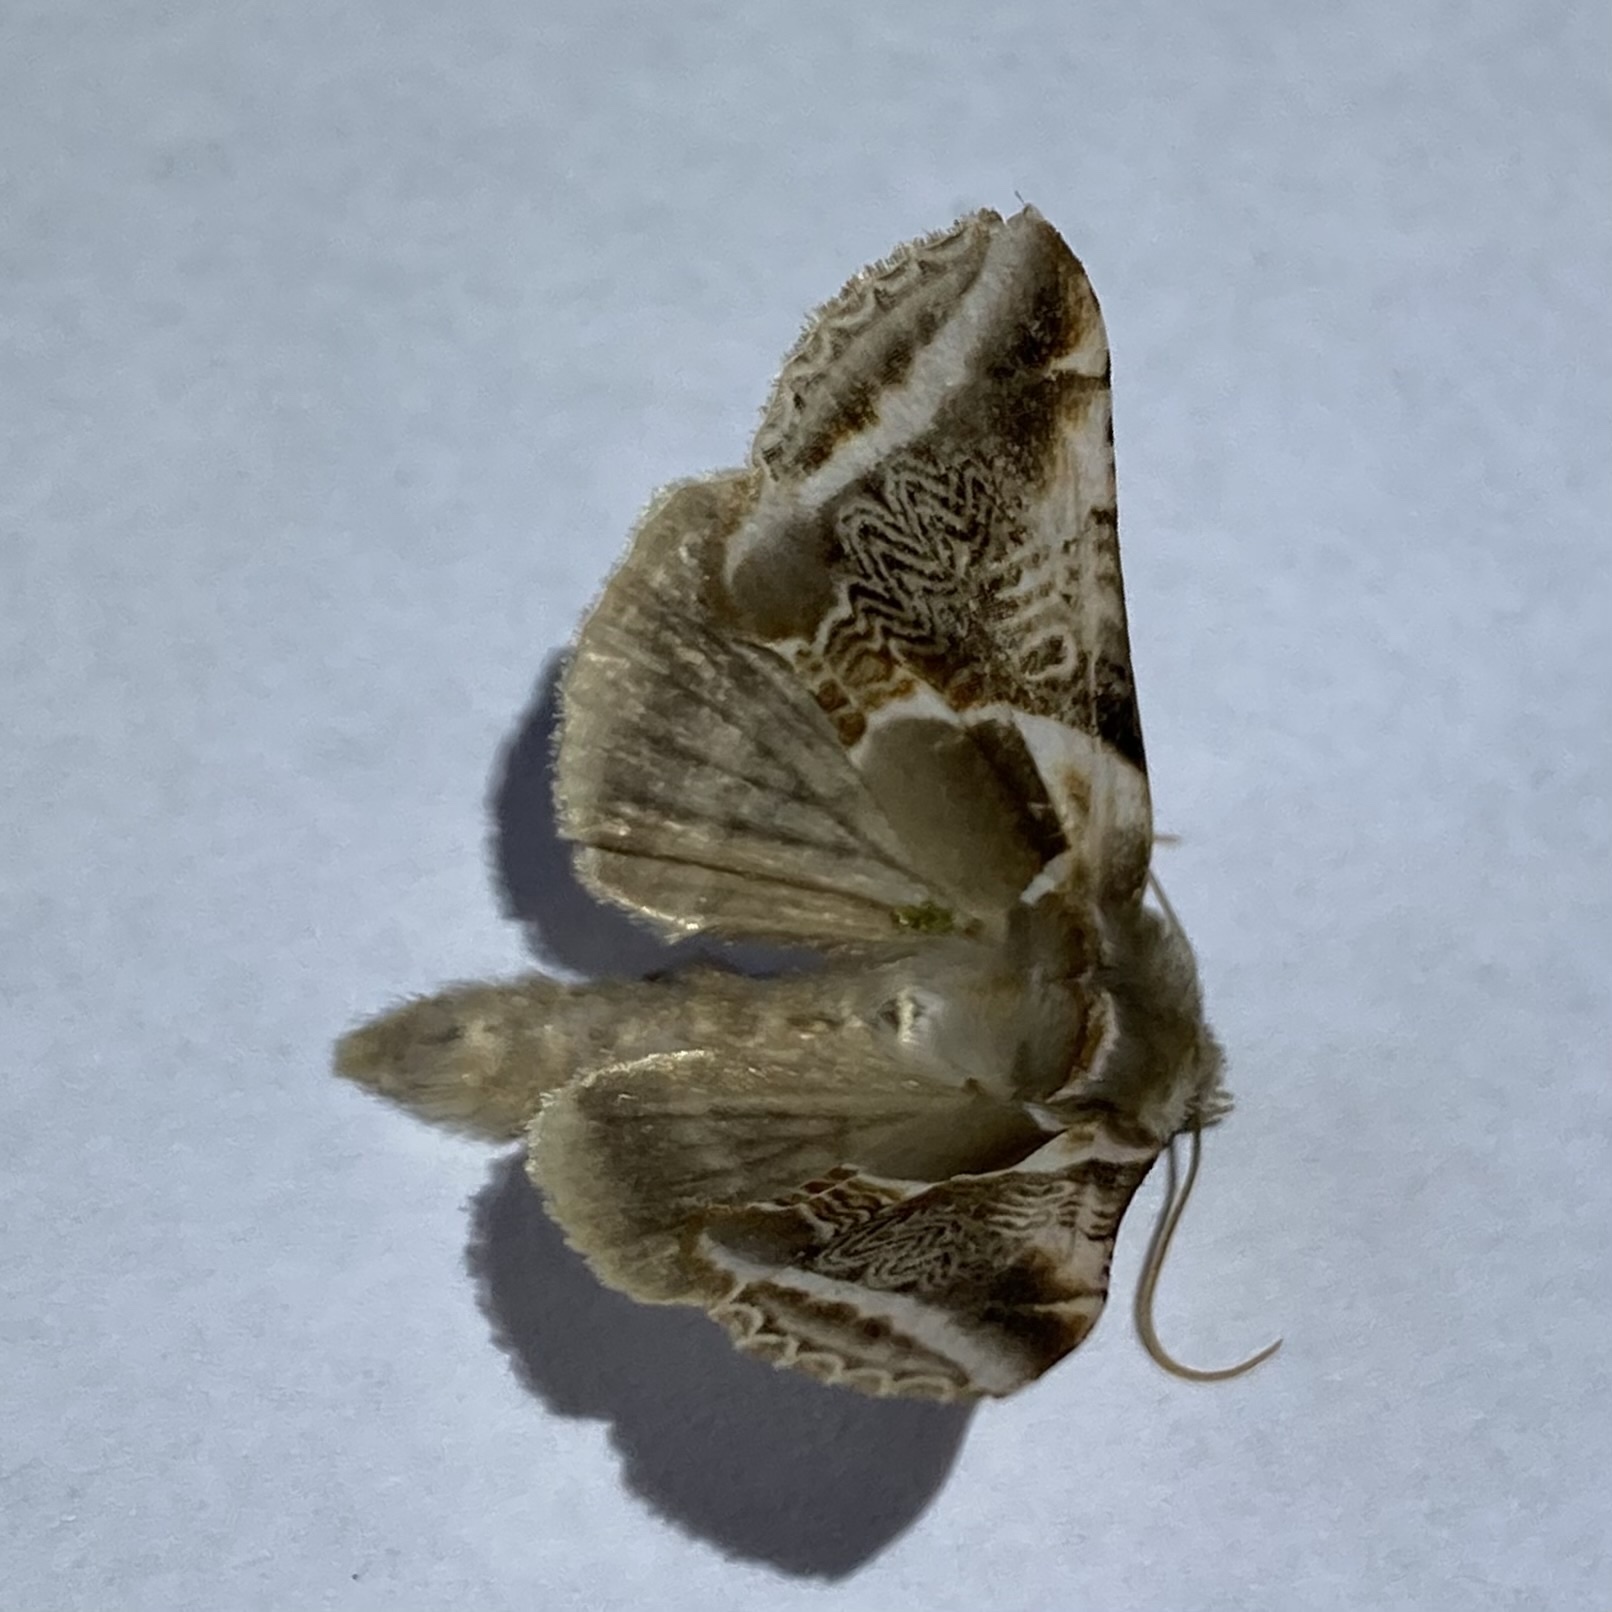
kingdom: Animalia
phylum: Arthropoda
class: Insecta
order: Lepidoptera
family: Drepanidae
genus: Habrosyne
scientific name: Habrosyne scripta
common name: Lettered habrosyne moth
